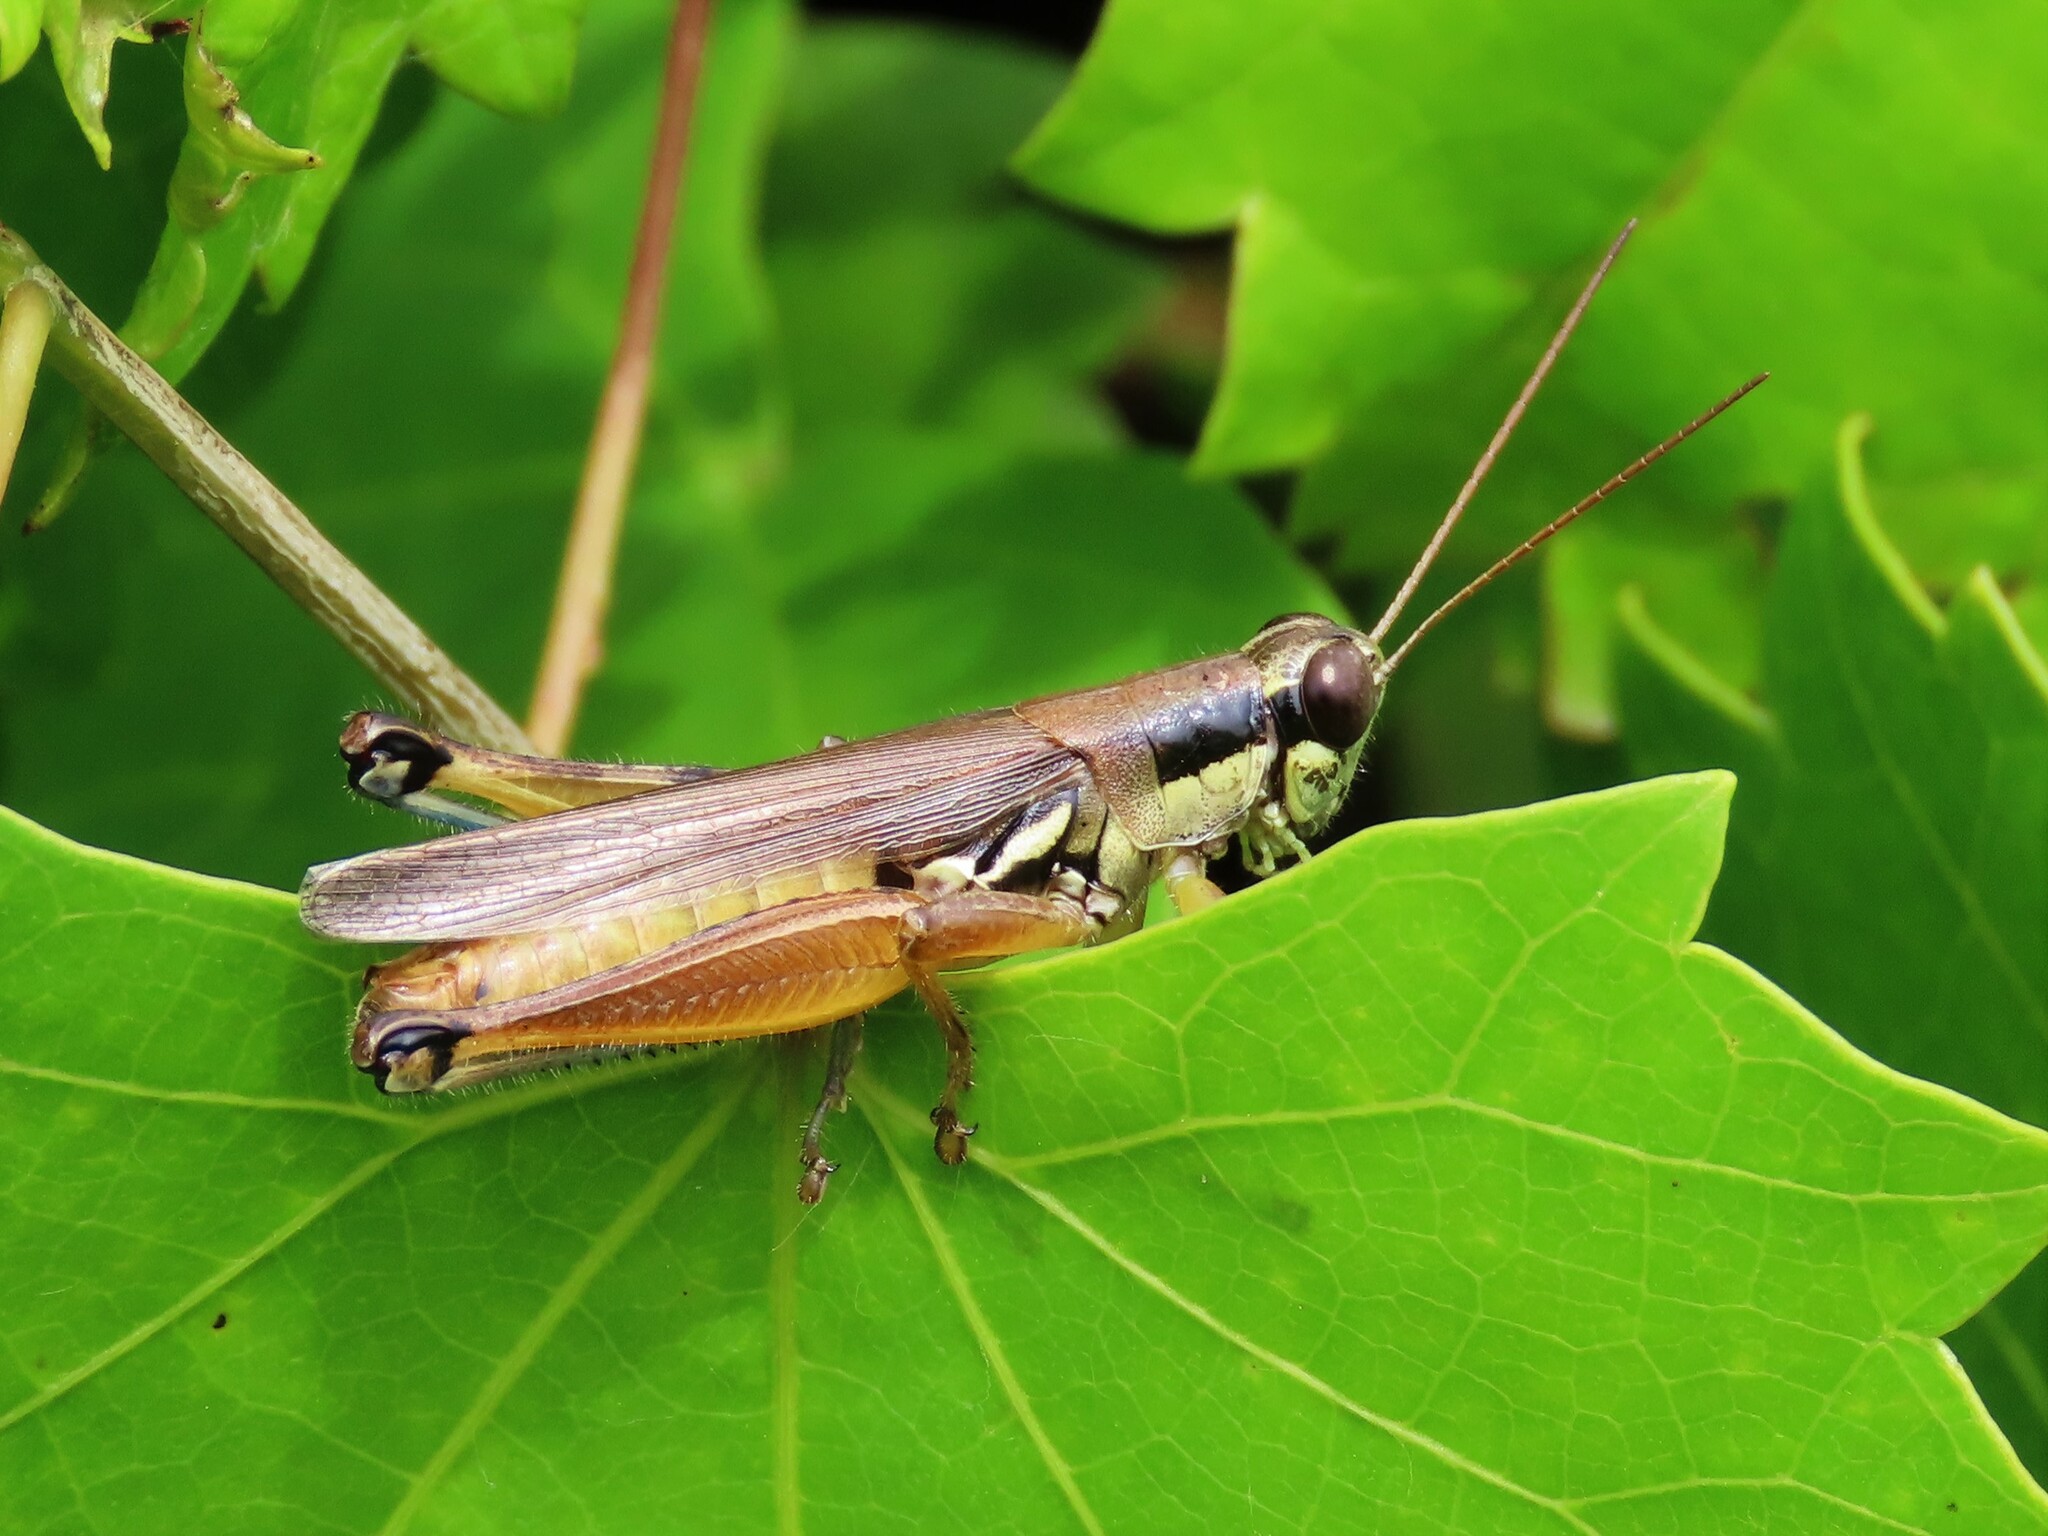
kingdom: Animalia
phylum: Arthropoda
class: Insecta
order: Orthoptera
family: Acrididae
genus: Paroxya
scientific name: Paroxya atlantica
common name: Atlantic grasshopper
